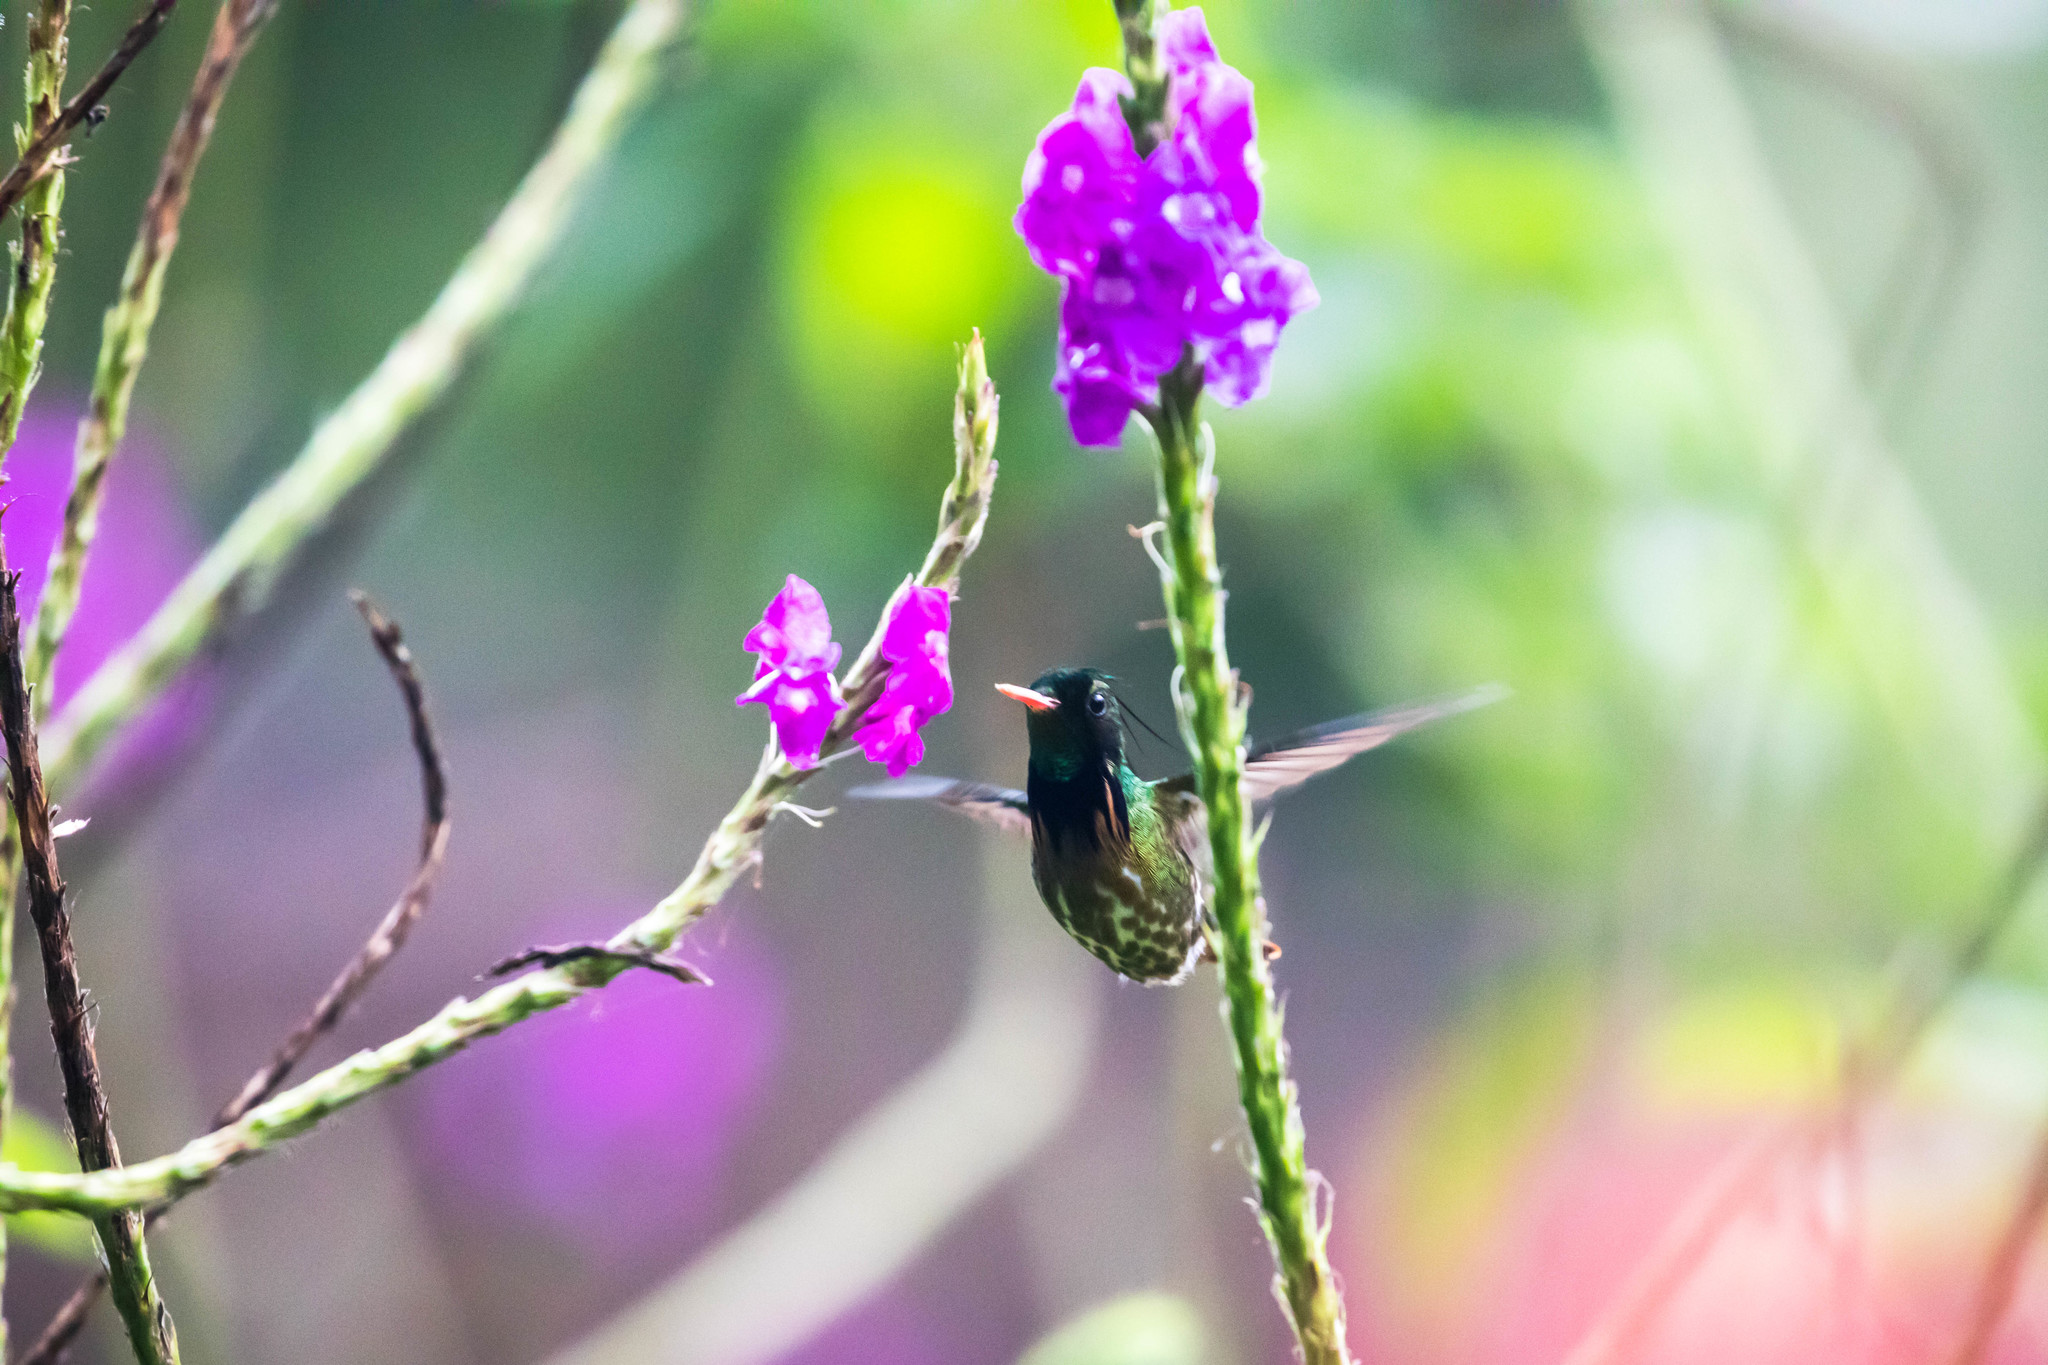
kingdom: Animalia
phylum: Chordata
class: Aves
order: Apodiformes
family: Trochilidae
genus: Lophornis
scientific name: Lophornis helenae
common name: Black-crested coquette
